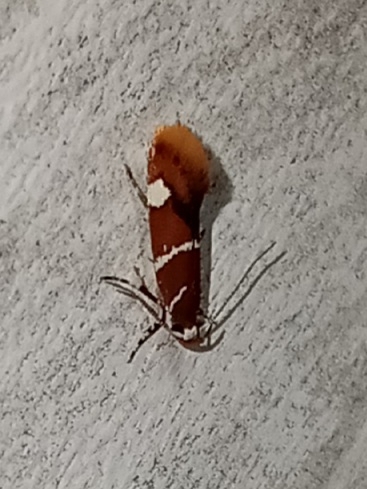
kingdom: Animalia
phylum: Arthropoda
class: Insecta
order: Lepidoptera
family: Oecophoridae
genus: Promalactis
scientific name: Promalactis suzukiella
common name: Moth
